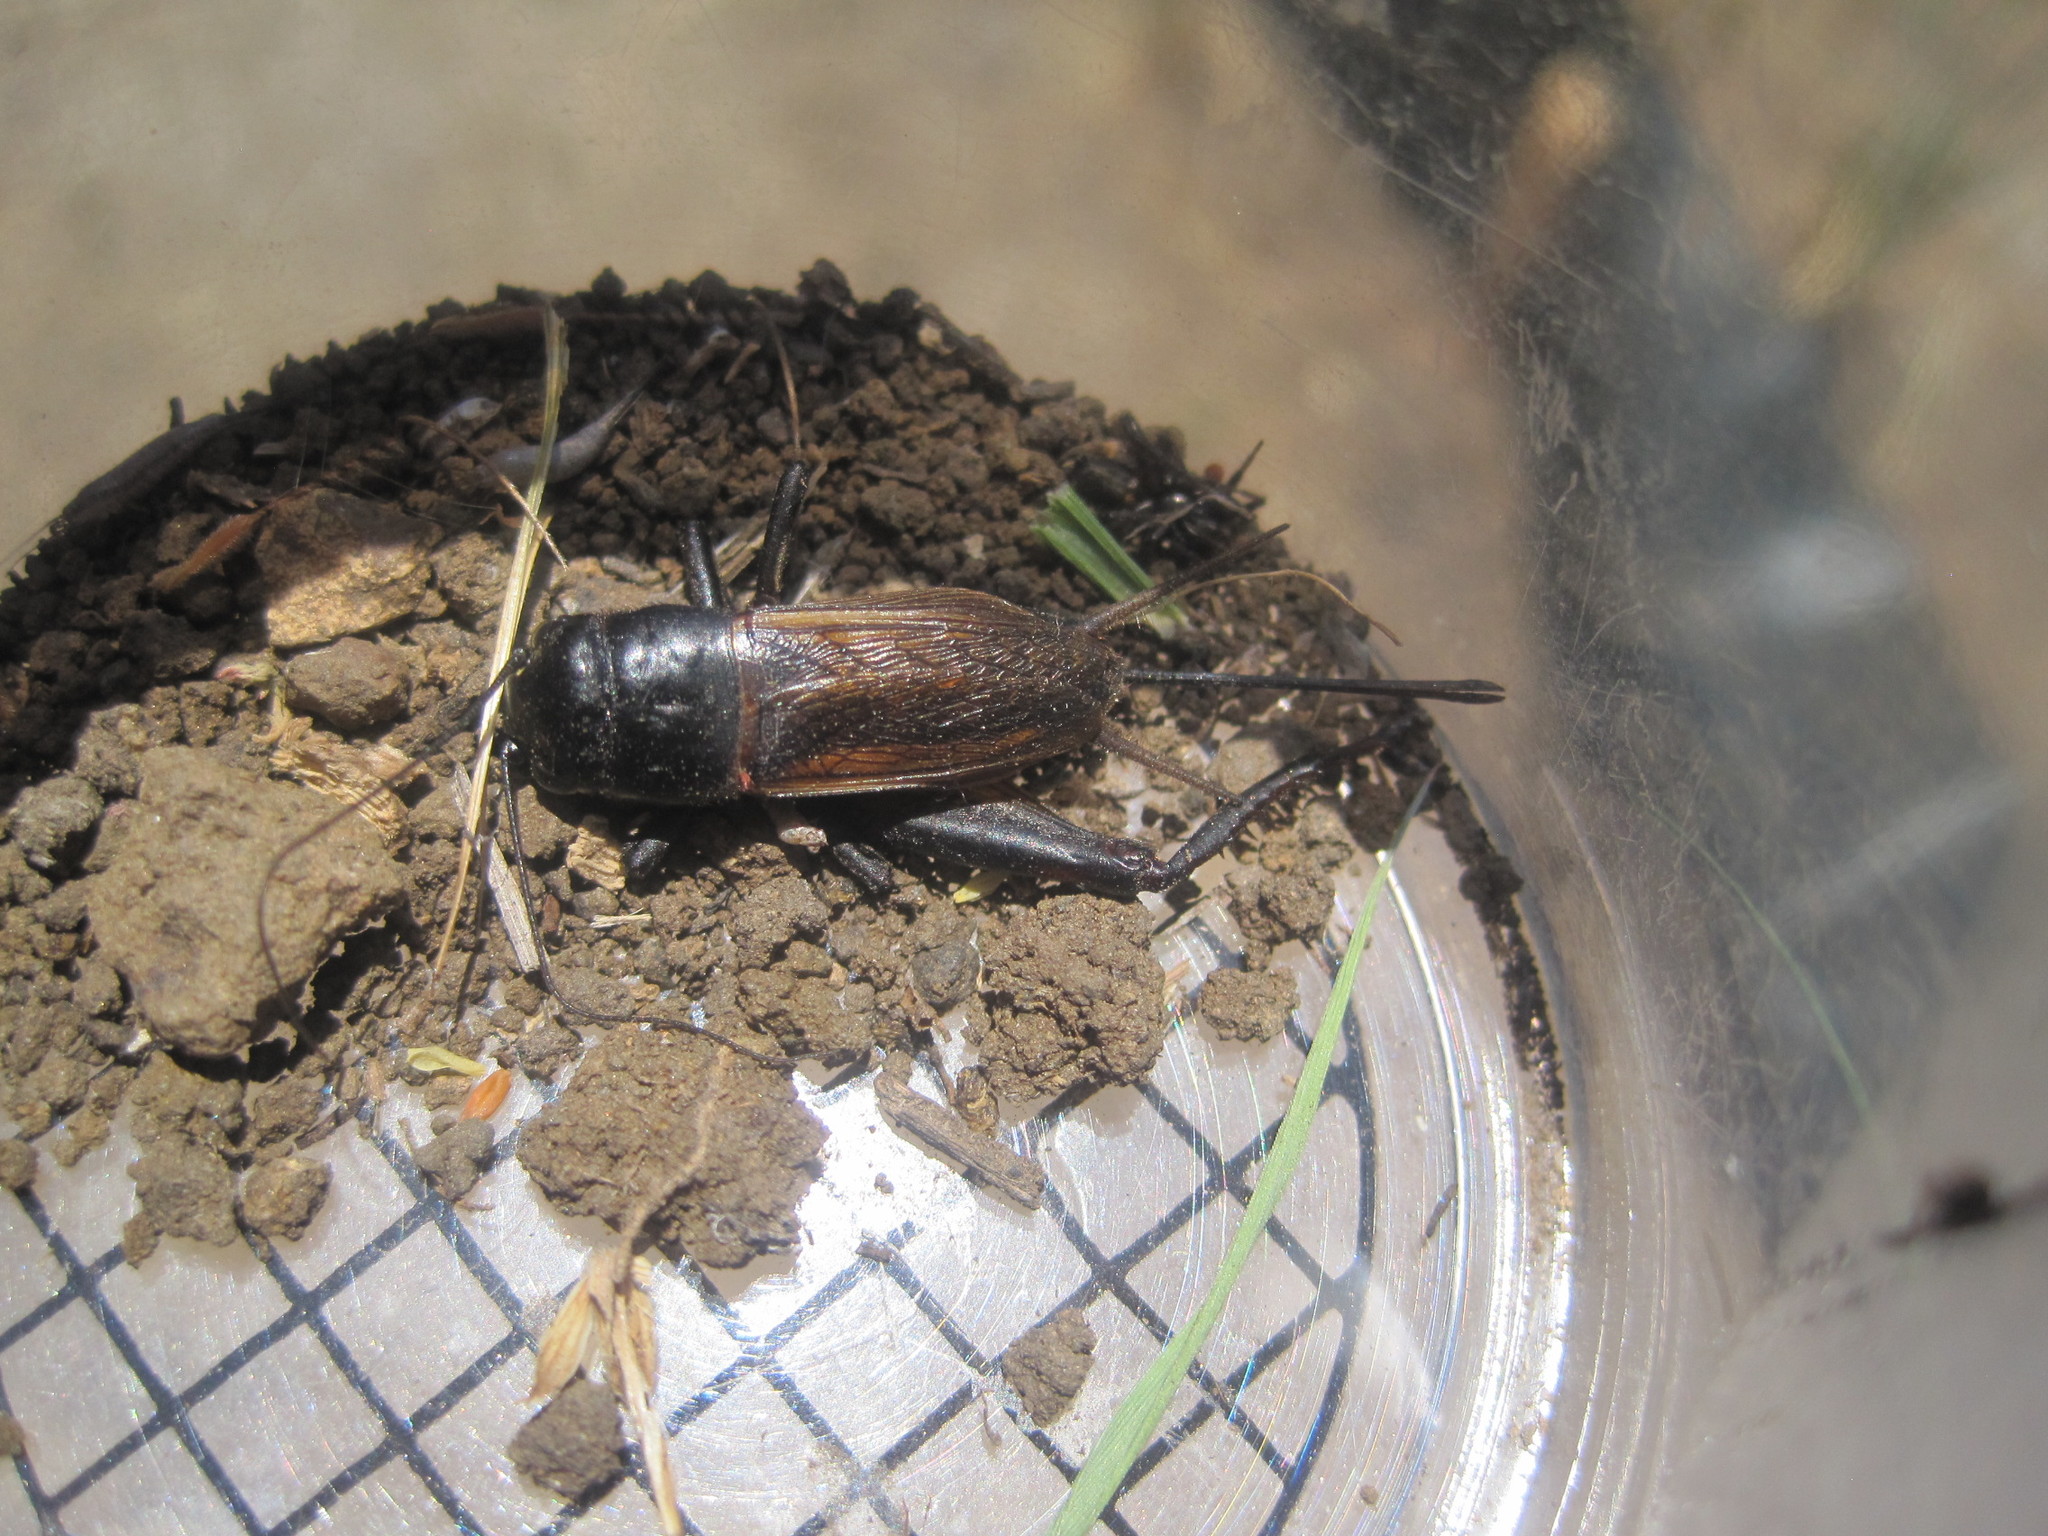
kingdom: Animalia
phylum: Arthropoda
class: Insecta
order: Orthoptera
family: Gryllidae
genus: Gryllus
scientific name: Gryllus
